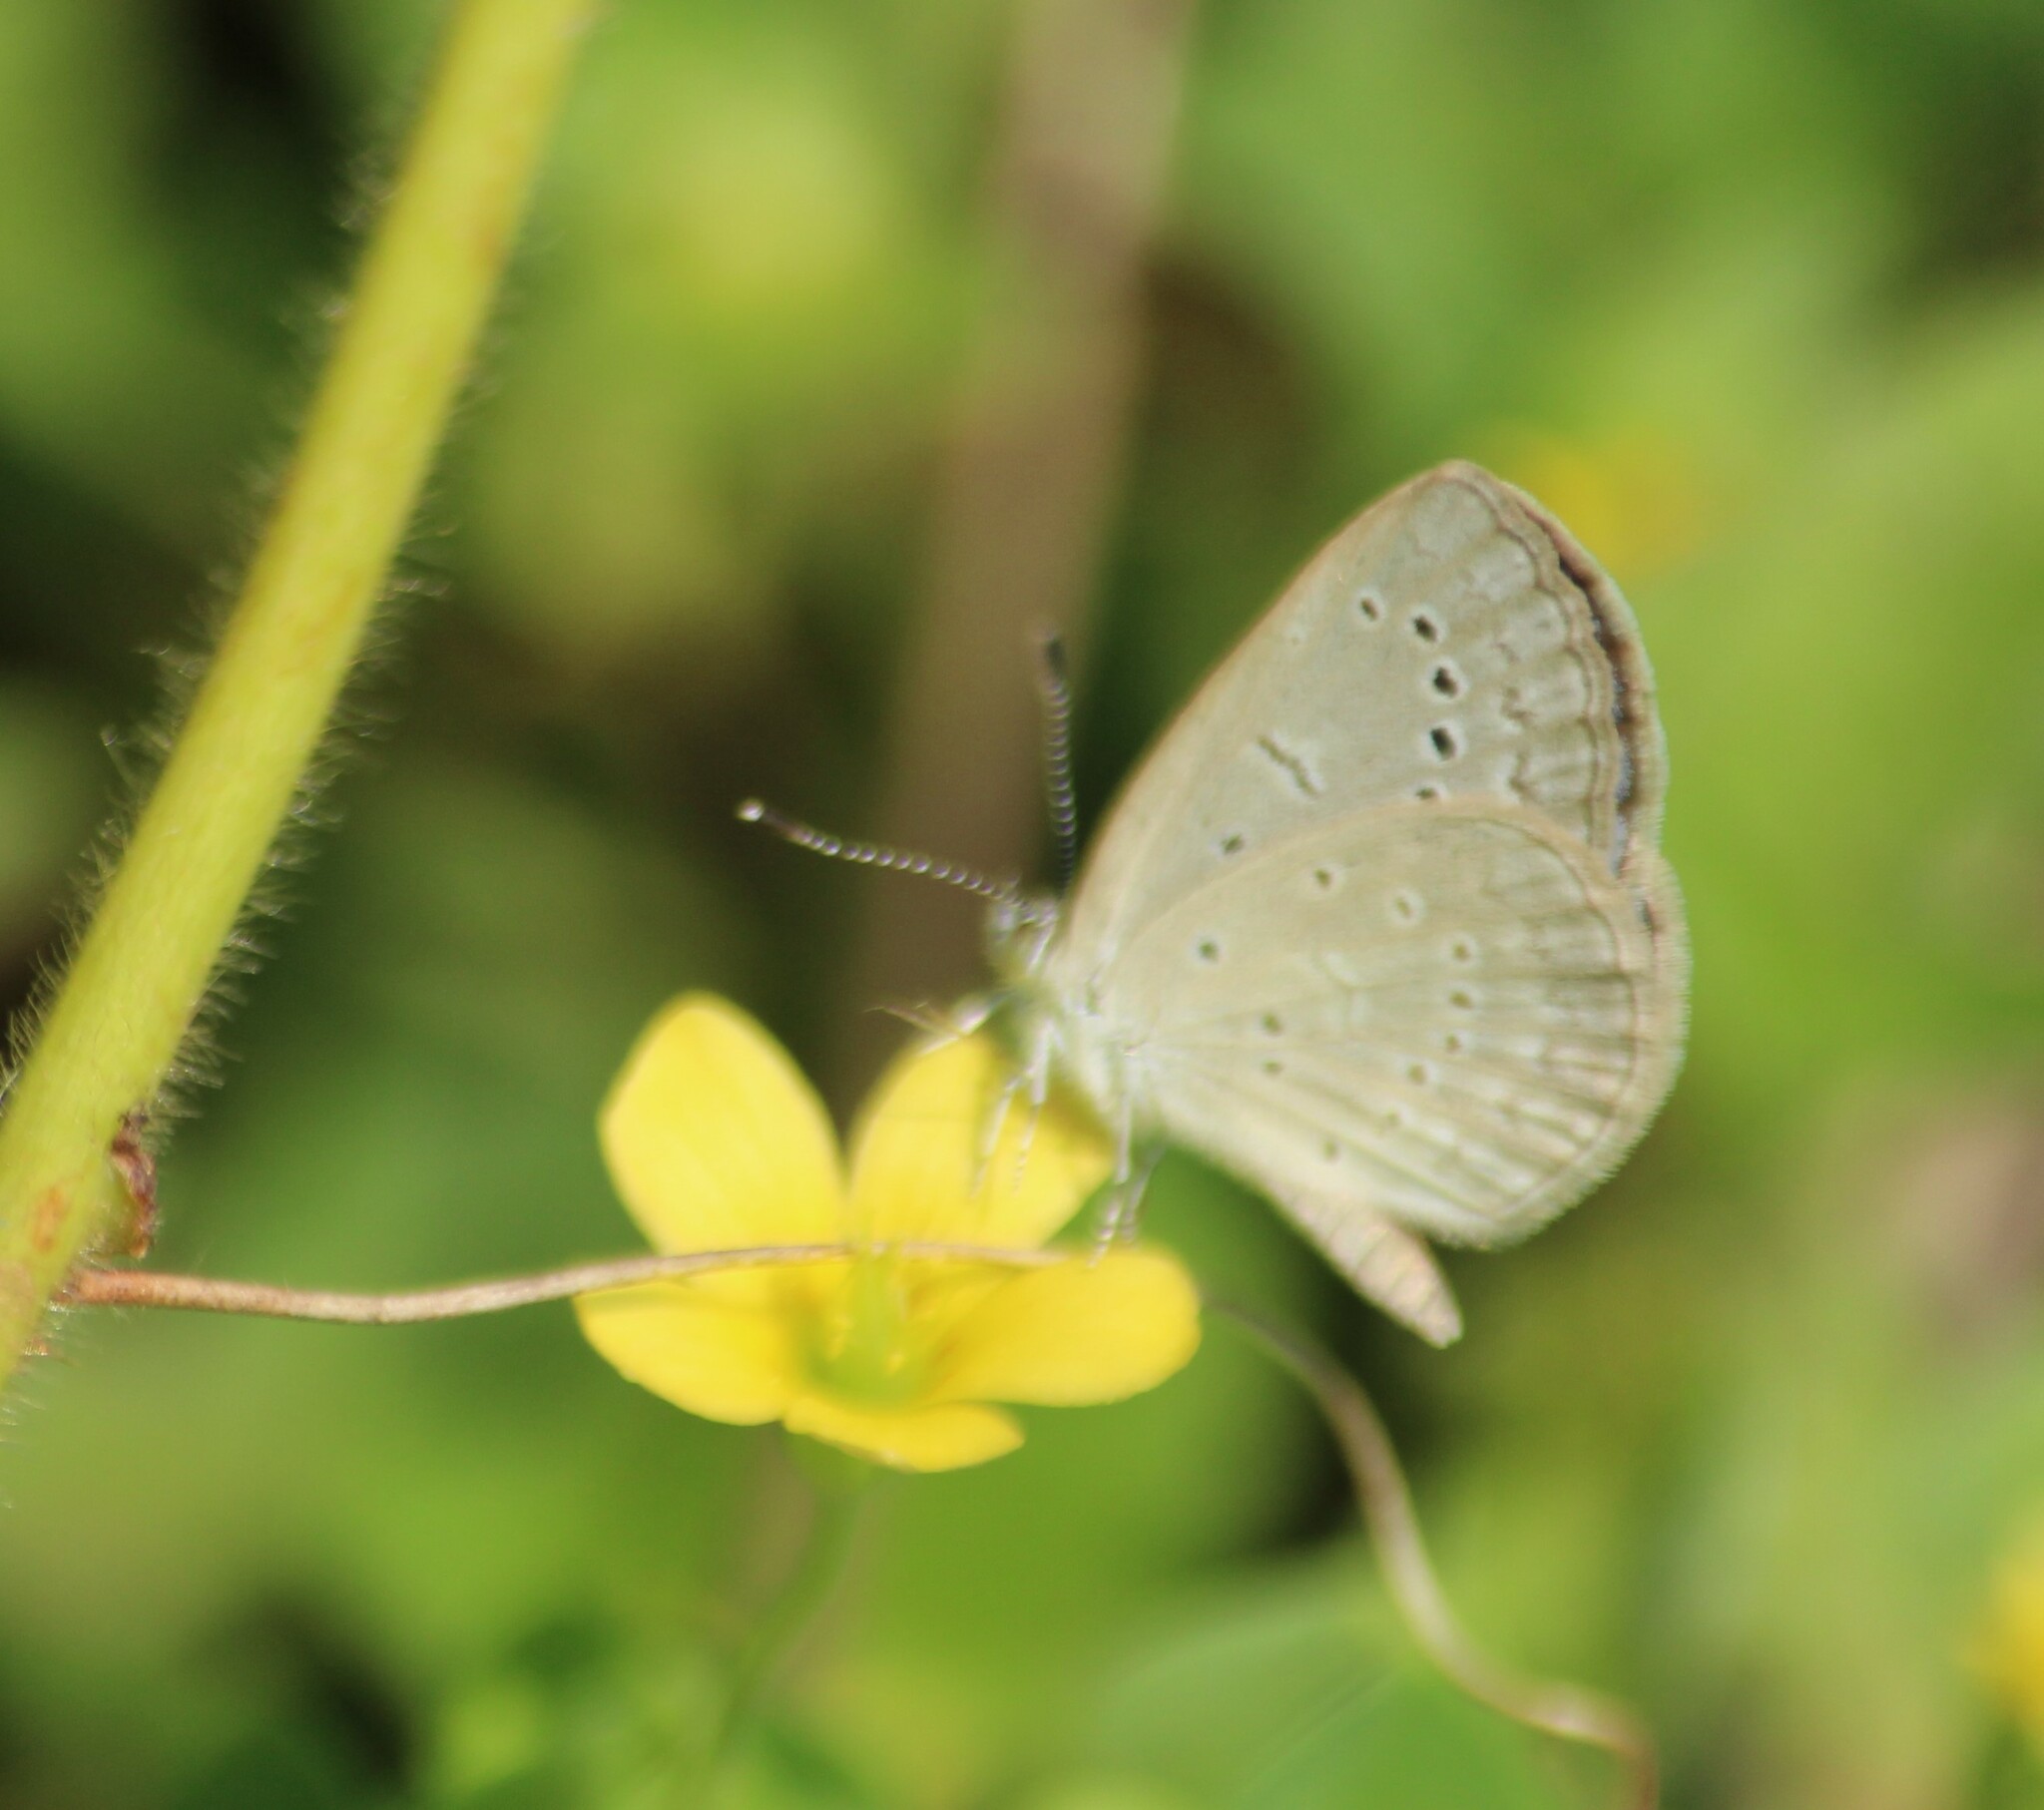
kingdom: Animalia
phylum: Arthropoda
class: Insecta
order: Lepidoptera
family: Lycaenidae
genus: Pseudozizeeria
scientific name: Pseudozizeeria maha
